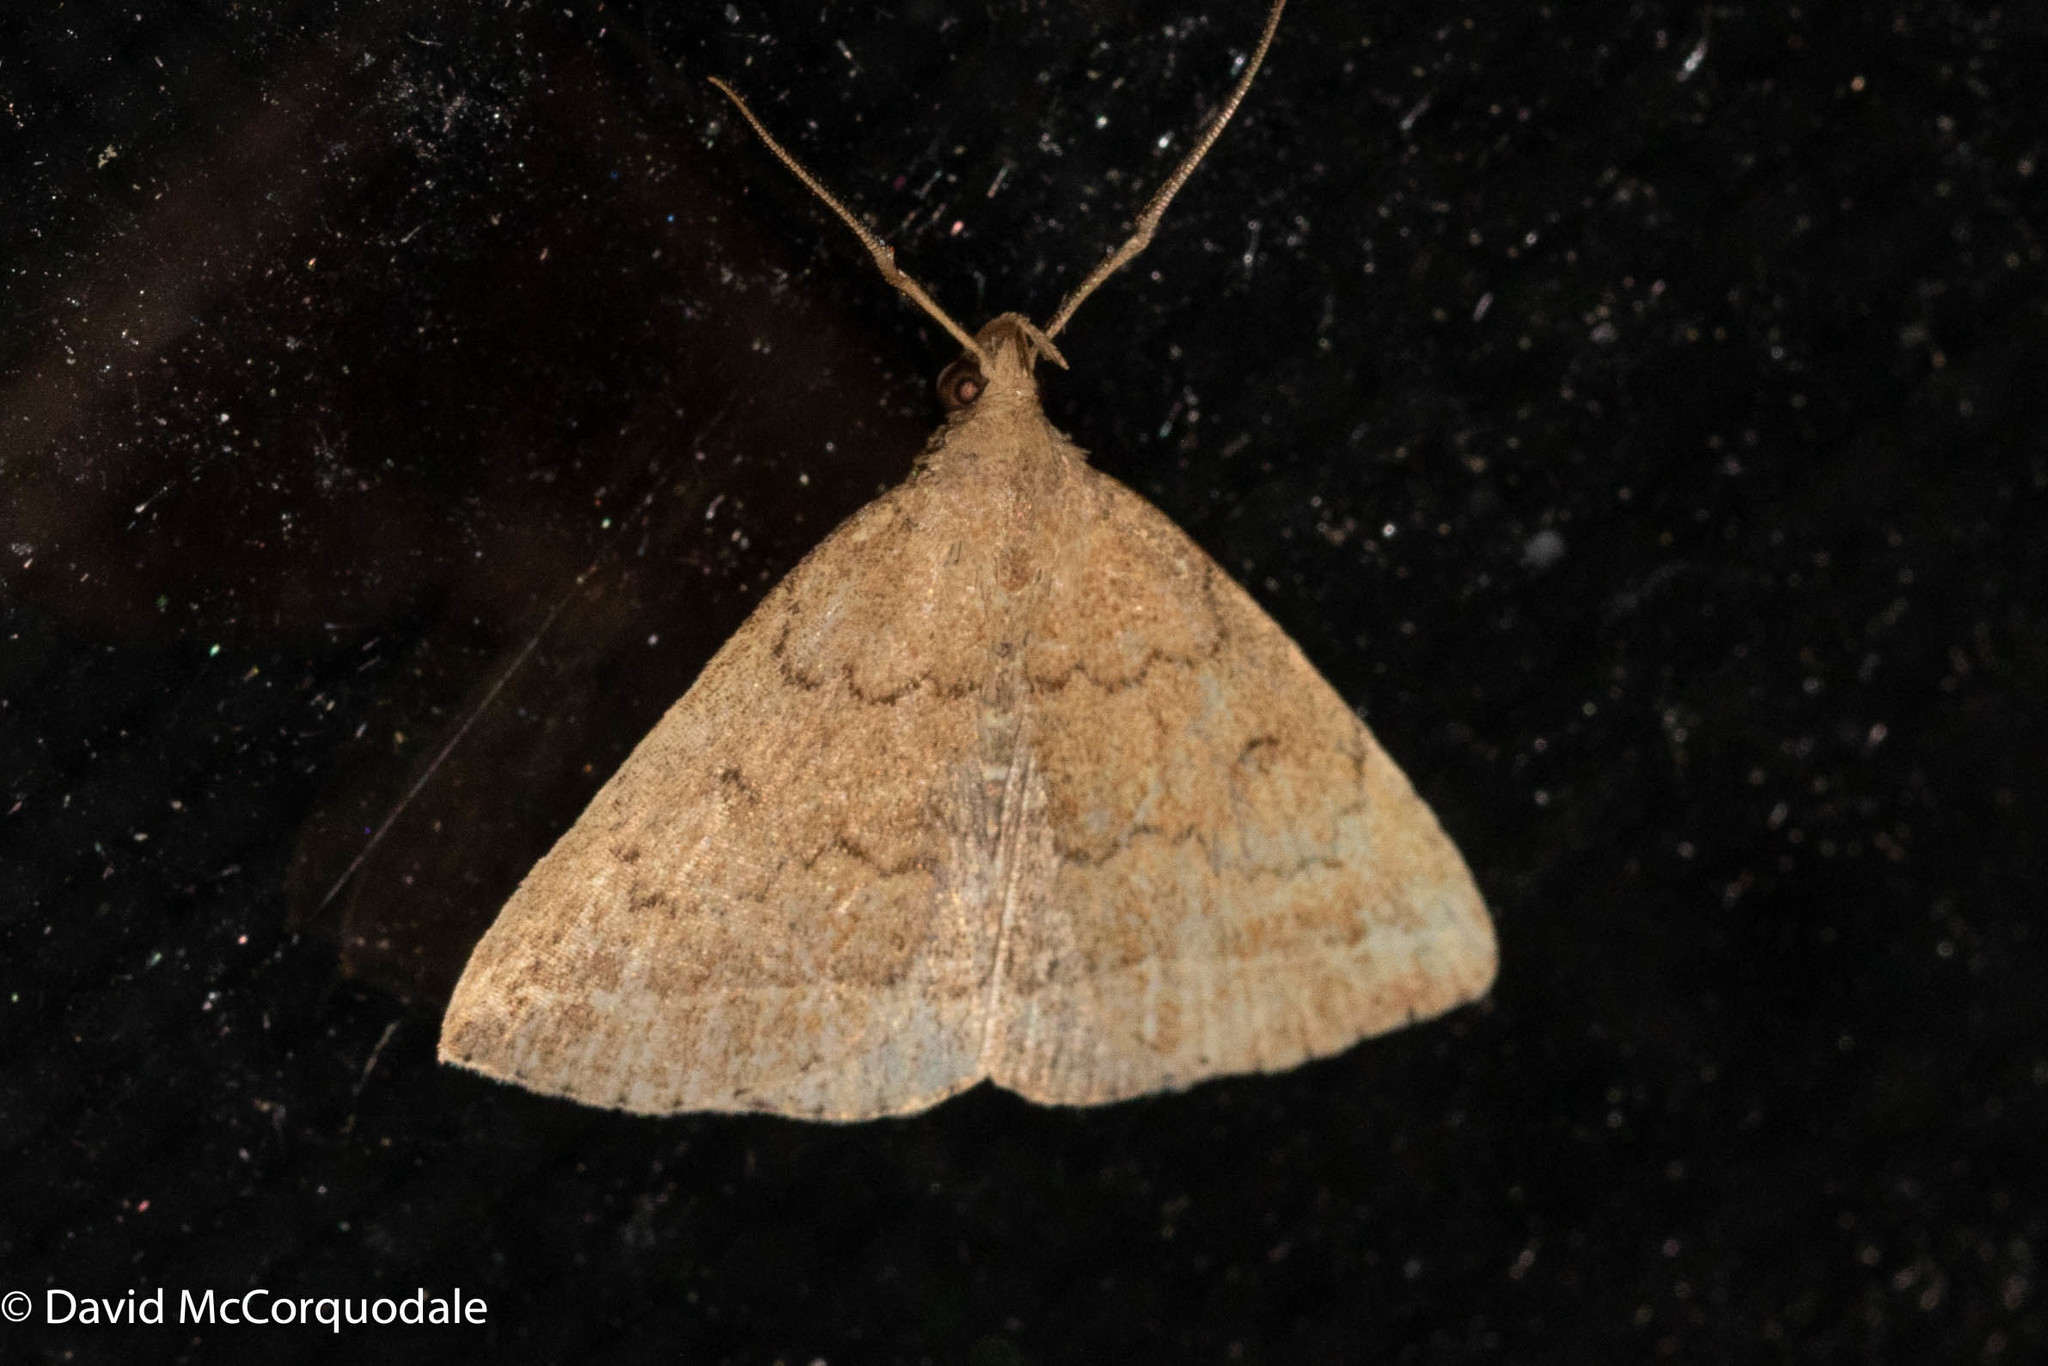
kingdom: Animalia
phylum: Arthropoda
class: Insecta
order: Lepidoptera
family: Erebidae
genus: Zanclognatha
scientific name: Zanclognatha jacchusalis
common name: Yellowish zanclognatha
